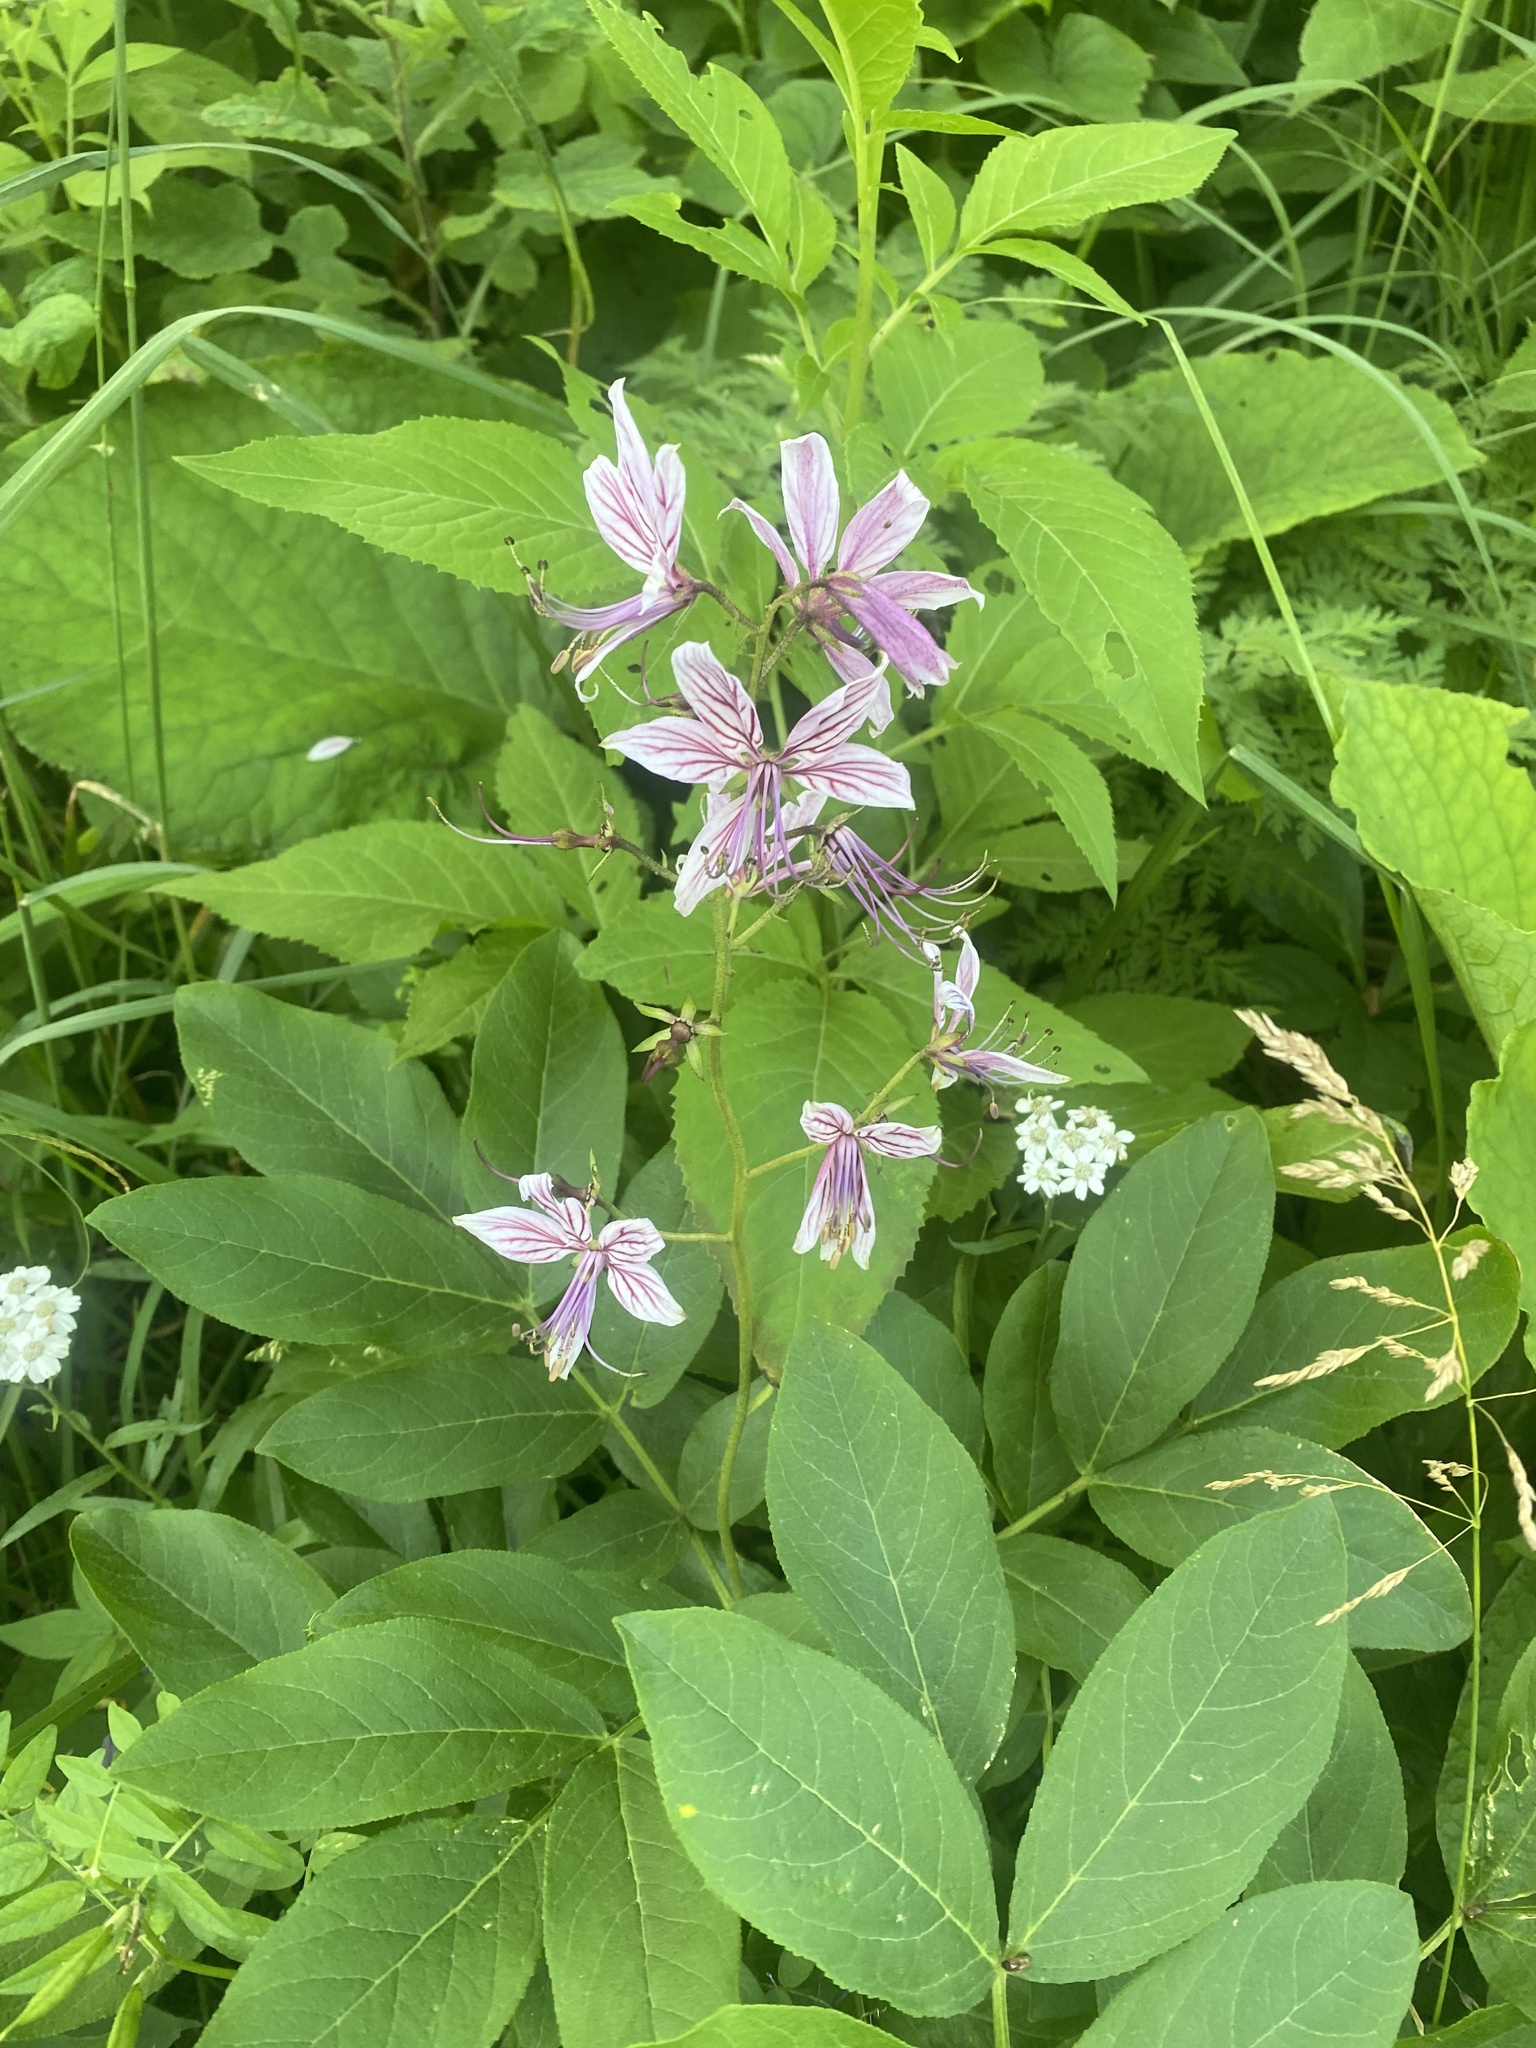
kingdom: Plantae
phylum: Tracheophyta
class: Magnoliopsida
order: Sapindales
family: Rutaceae
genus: Dictamnus
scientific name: Dictamnus albus
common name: Gasplant
